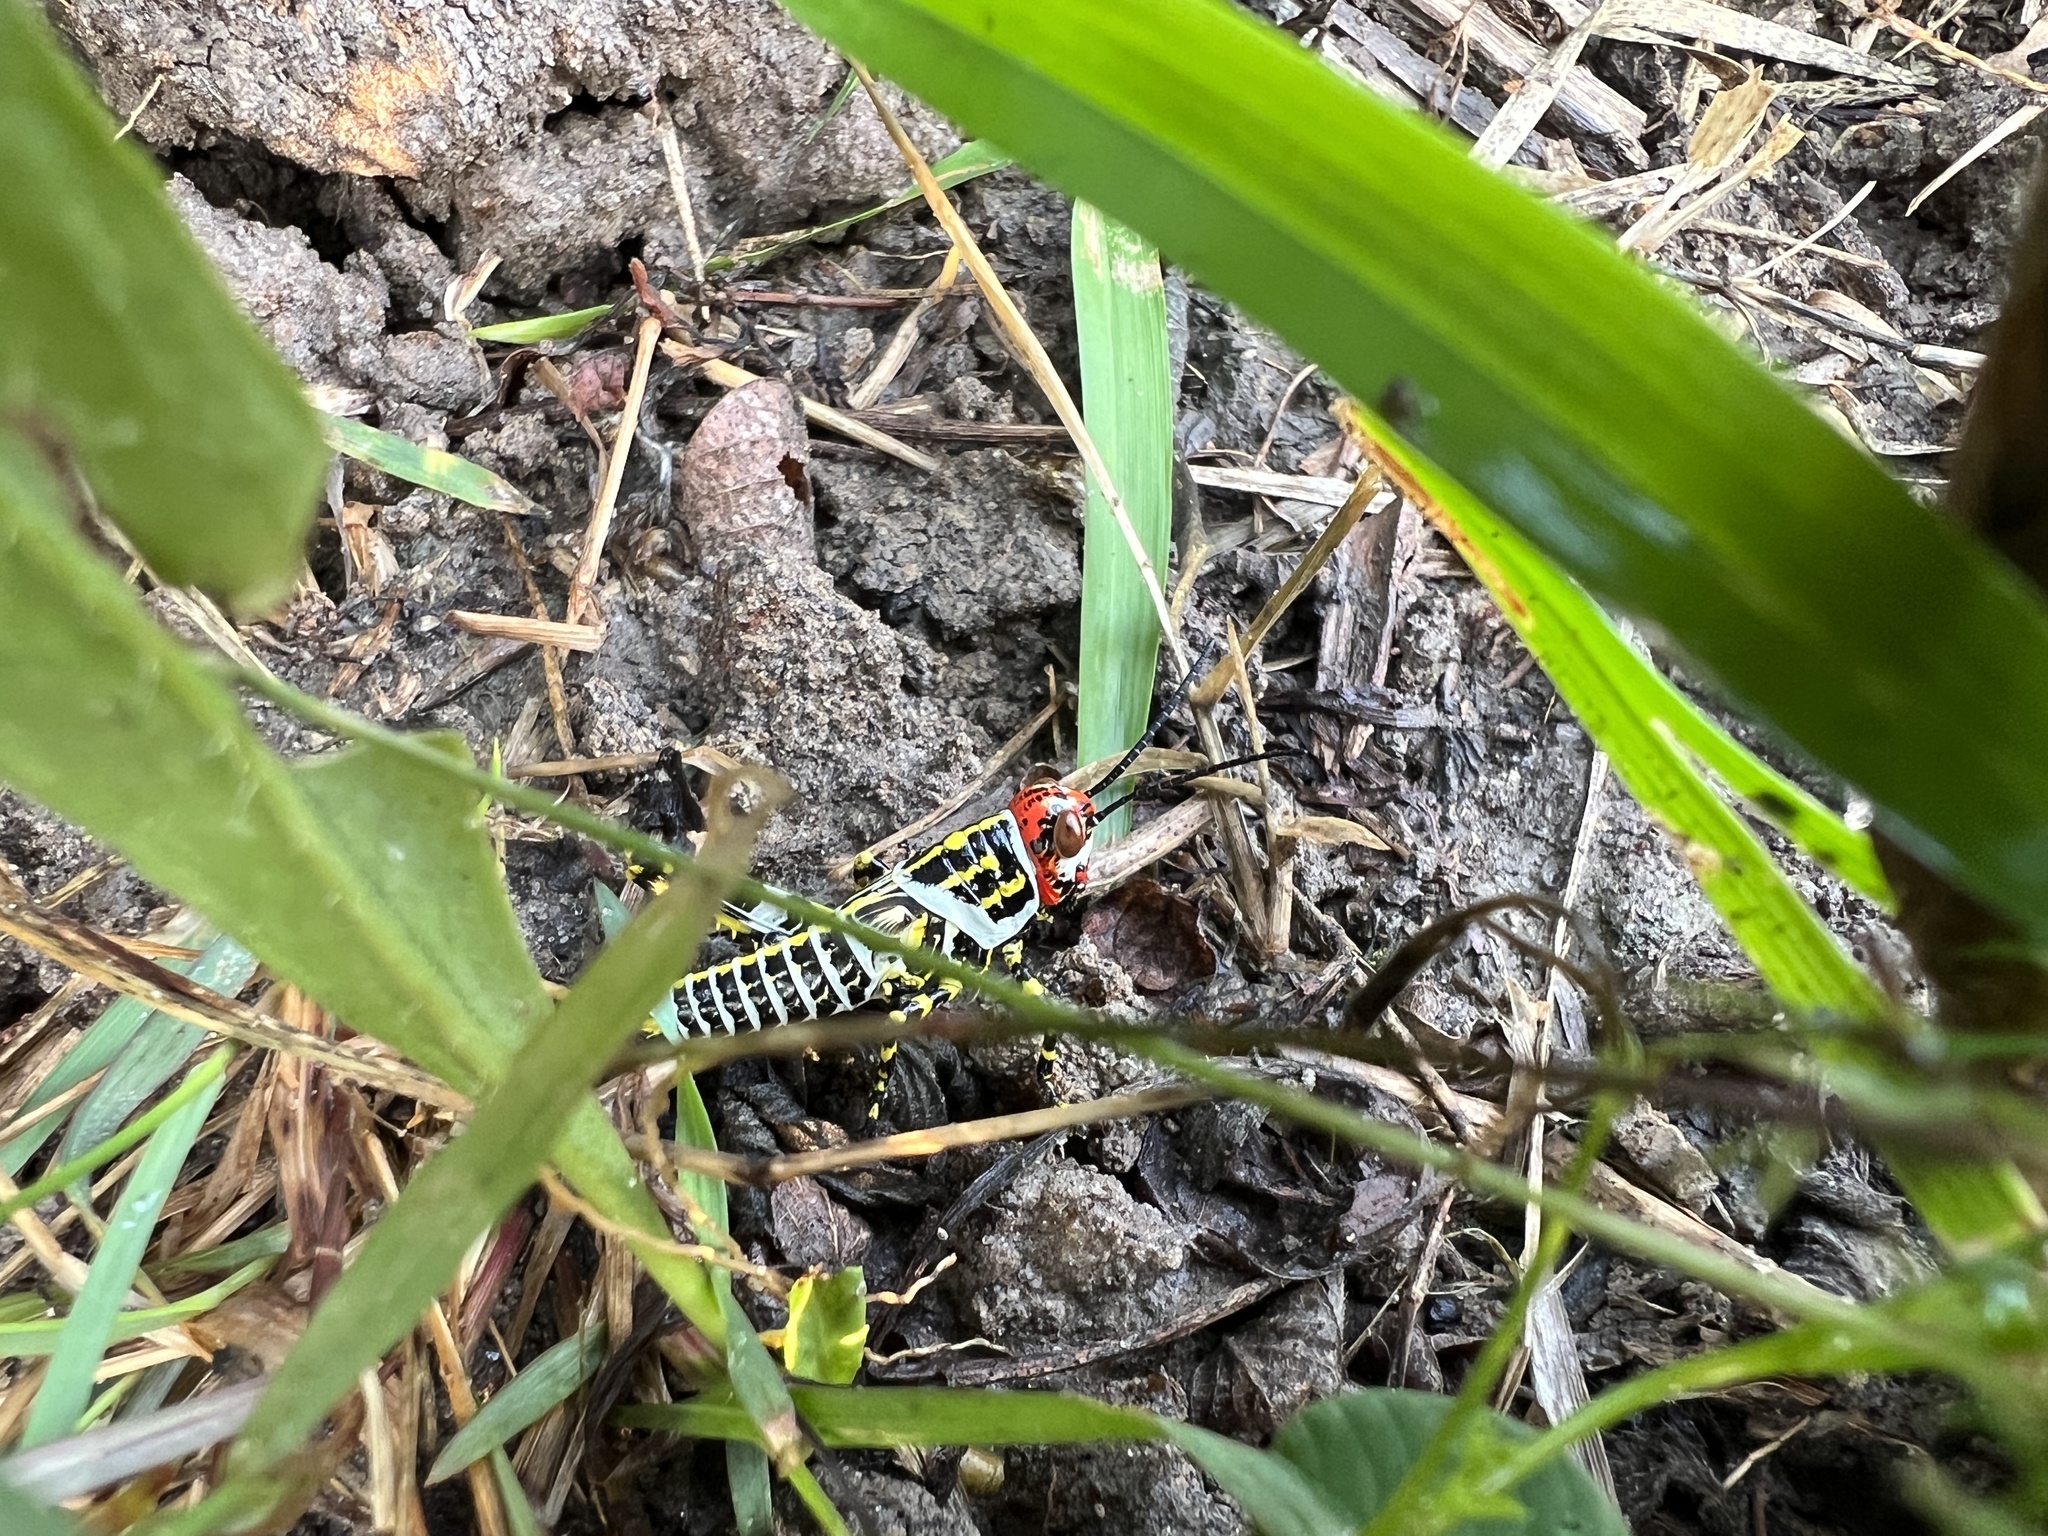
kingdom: Animalia
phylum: Arthropoda
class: Insecta
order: Orthoptera
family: Romaleidae
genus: Zoniopoda
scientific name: Zoniopoda omnicolor
